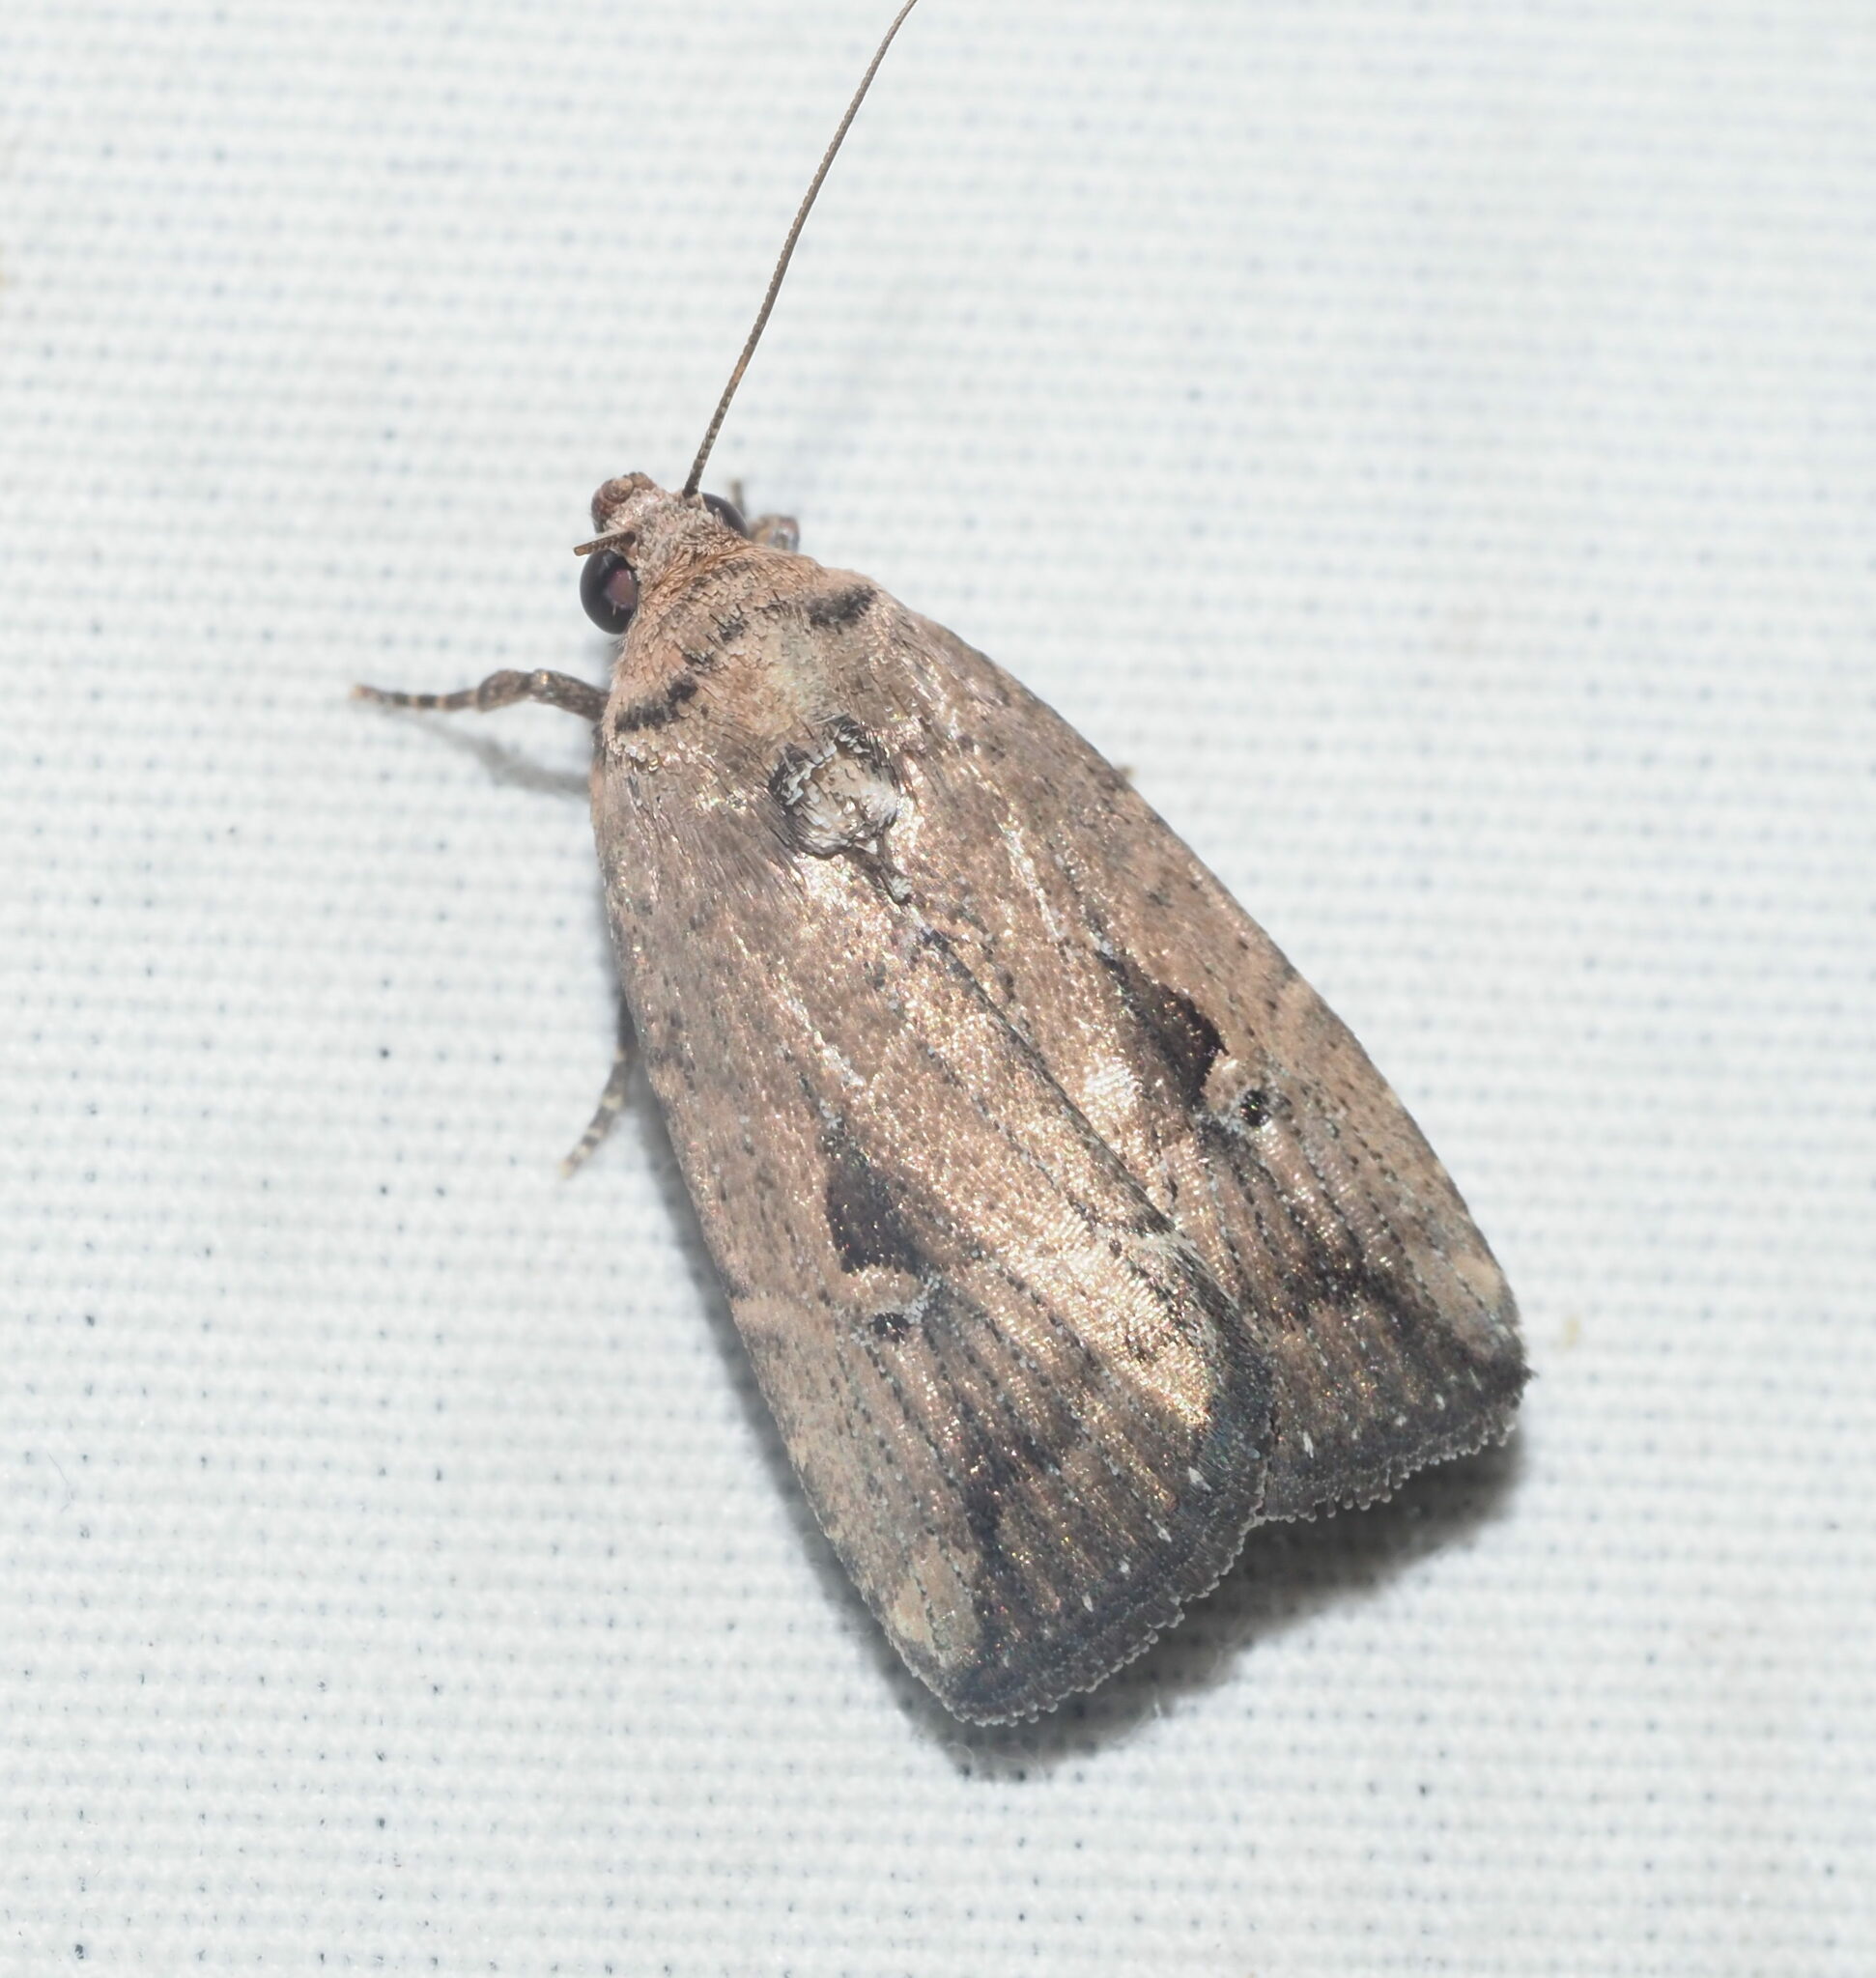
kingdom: Animalia
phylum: Arthropoda
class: Insecta
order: Lepidoptera
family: Noctuidae
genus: Elaphria
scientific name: Elaphria nucicolora
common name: Sugarcane midget moth
